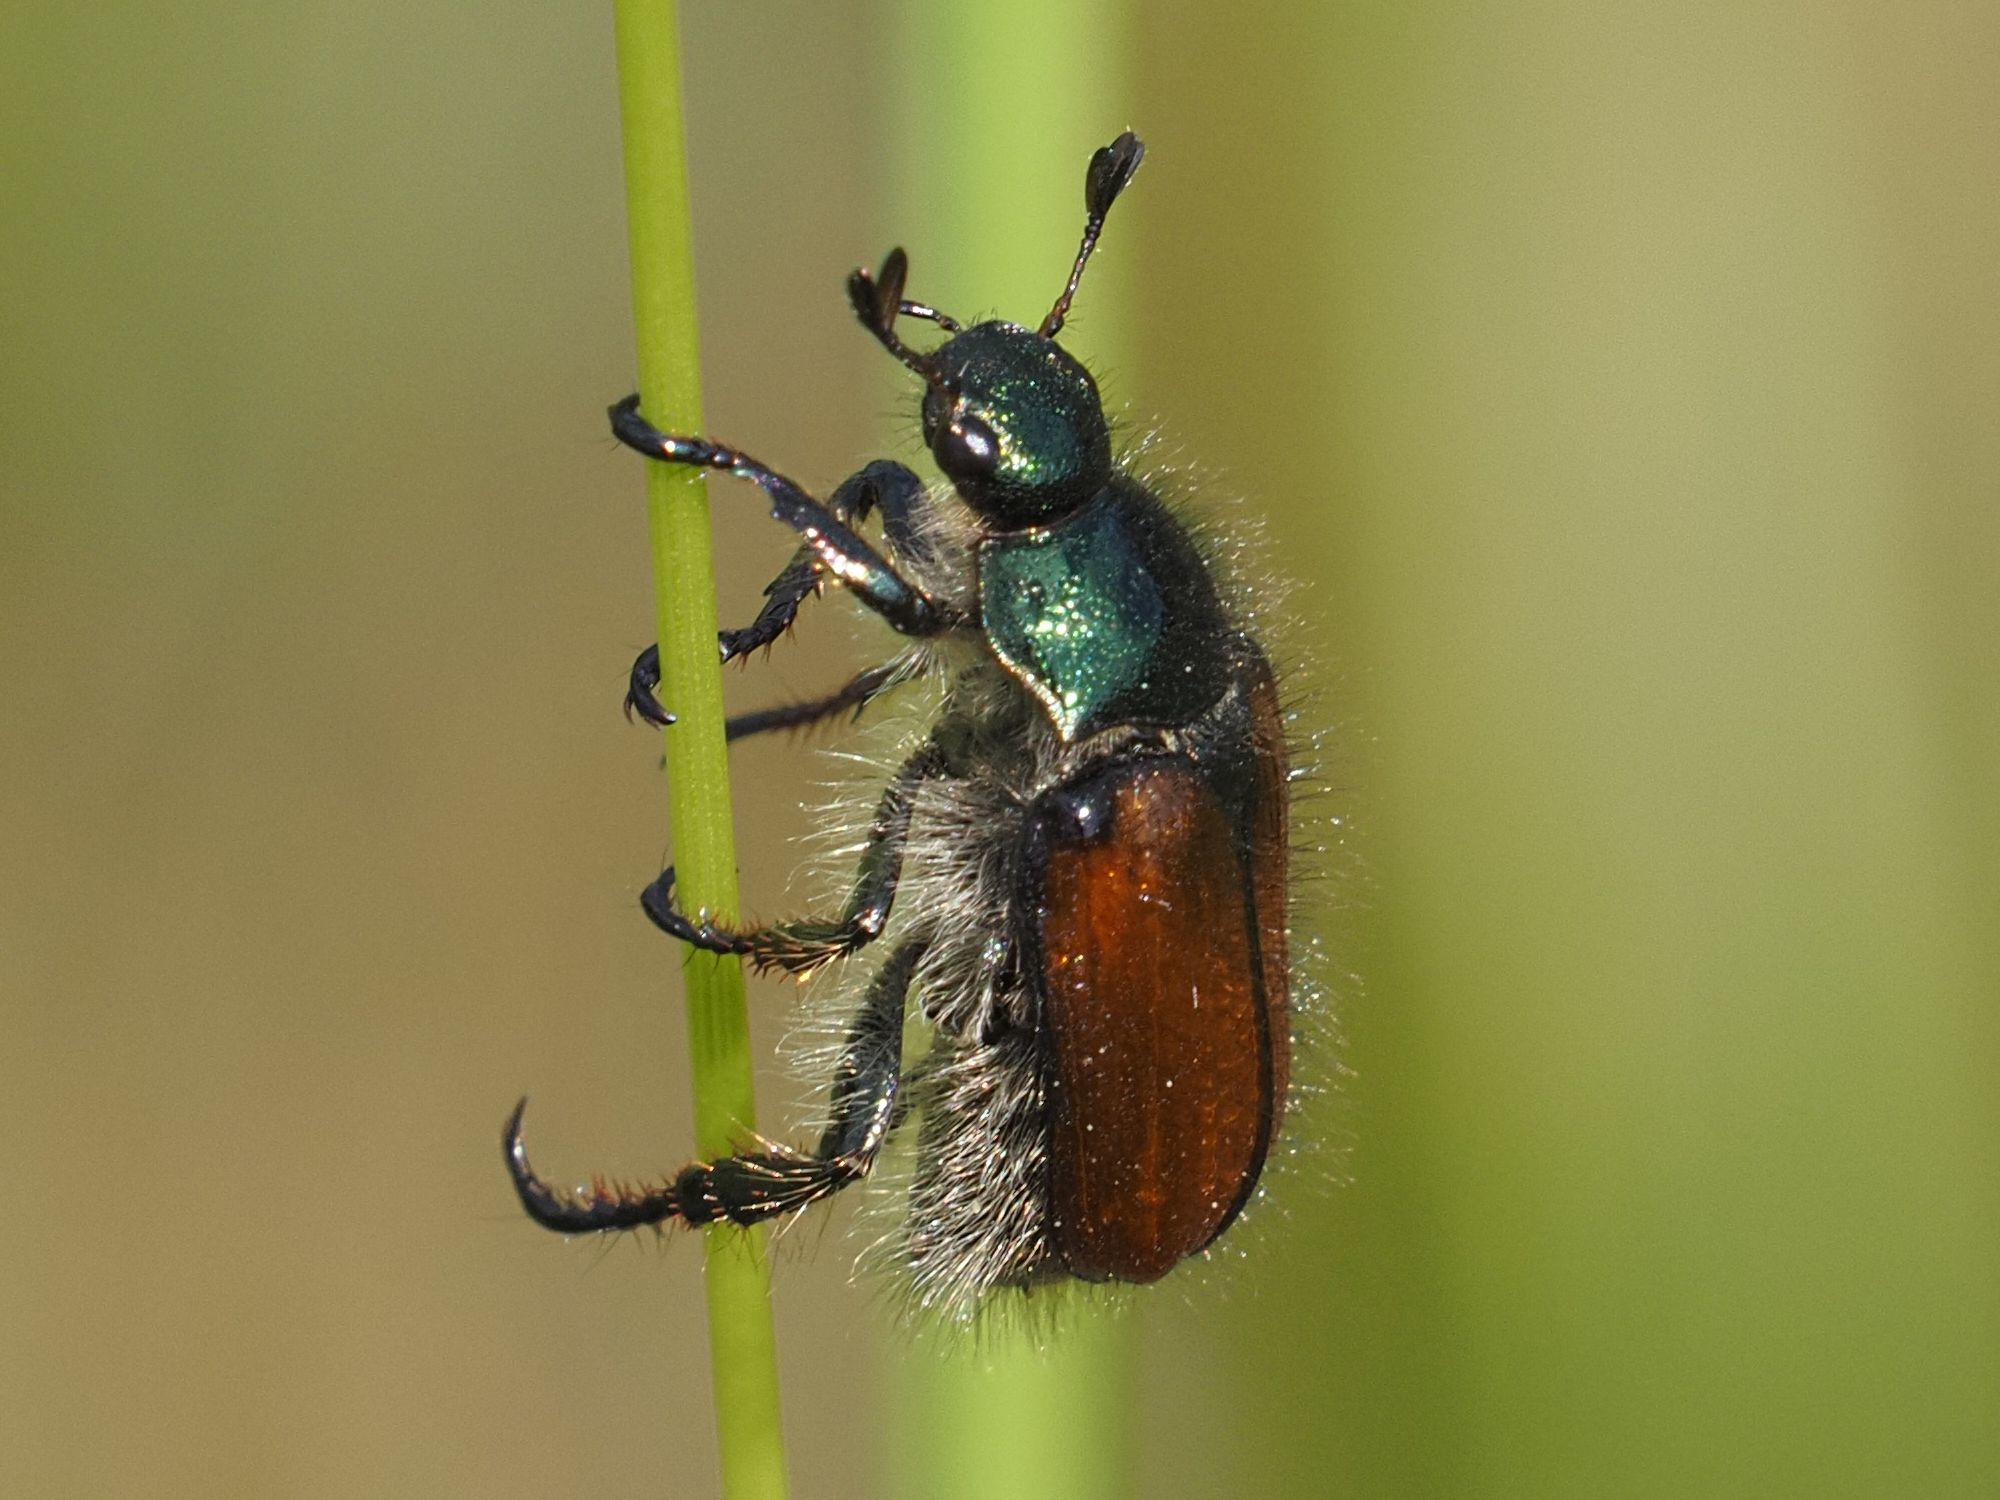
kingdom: Animalia
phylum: Arthropoda
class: Insecta
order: Coleoptera
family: Scarabaeidae
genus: Phyllopertha
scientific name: Phyllopertha horticola
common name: Garden chafer
